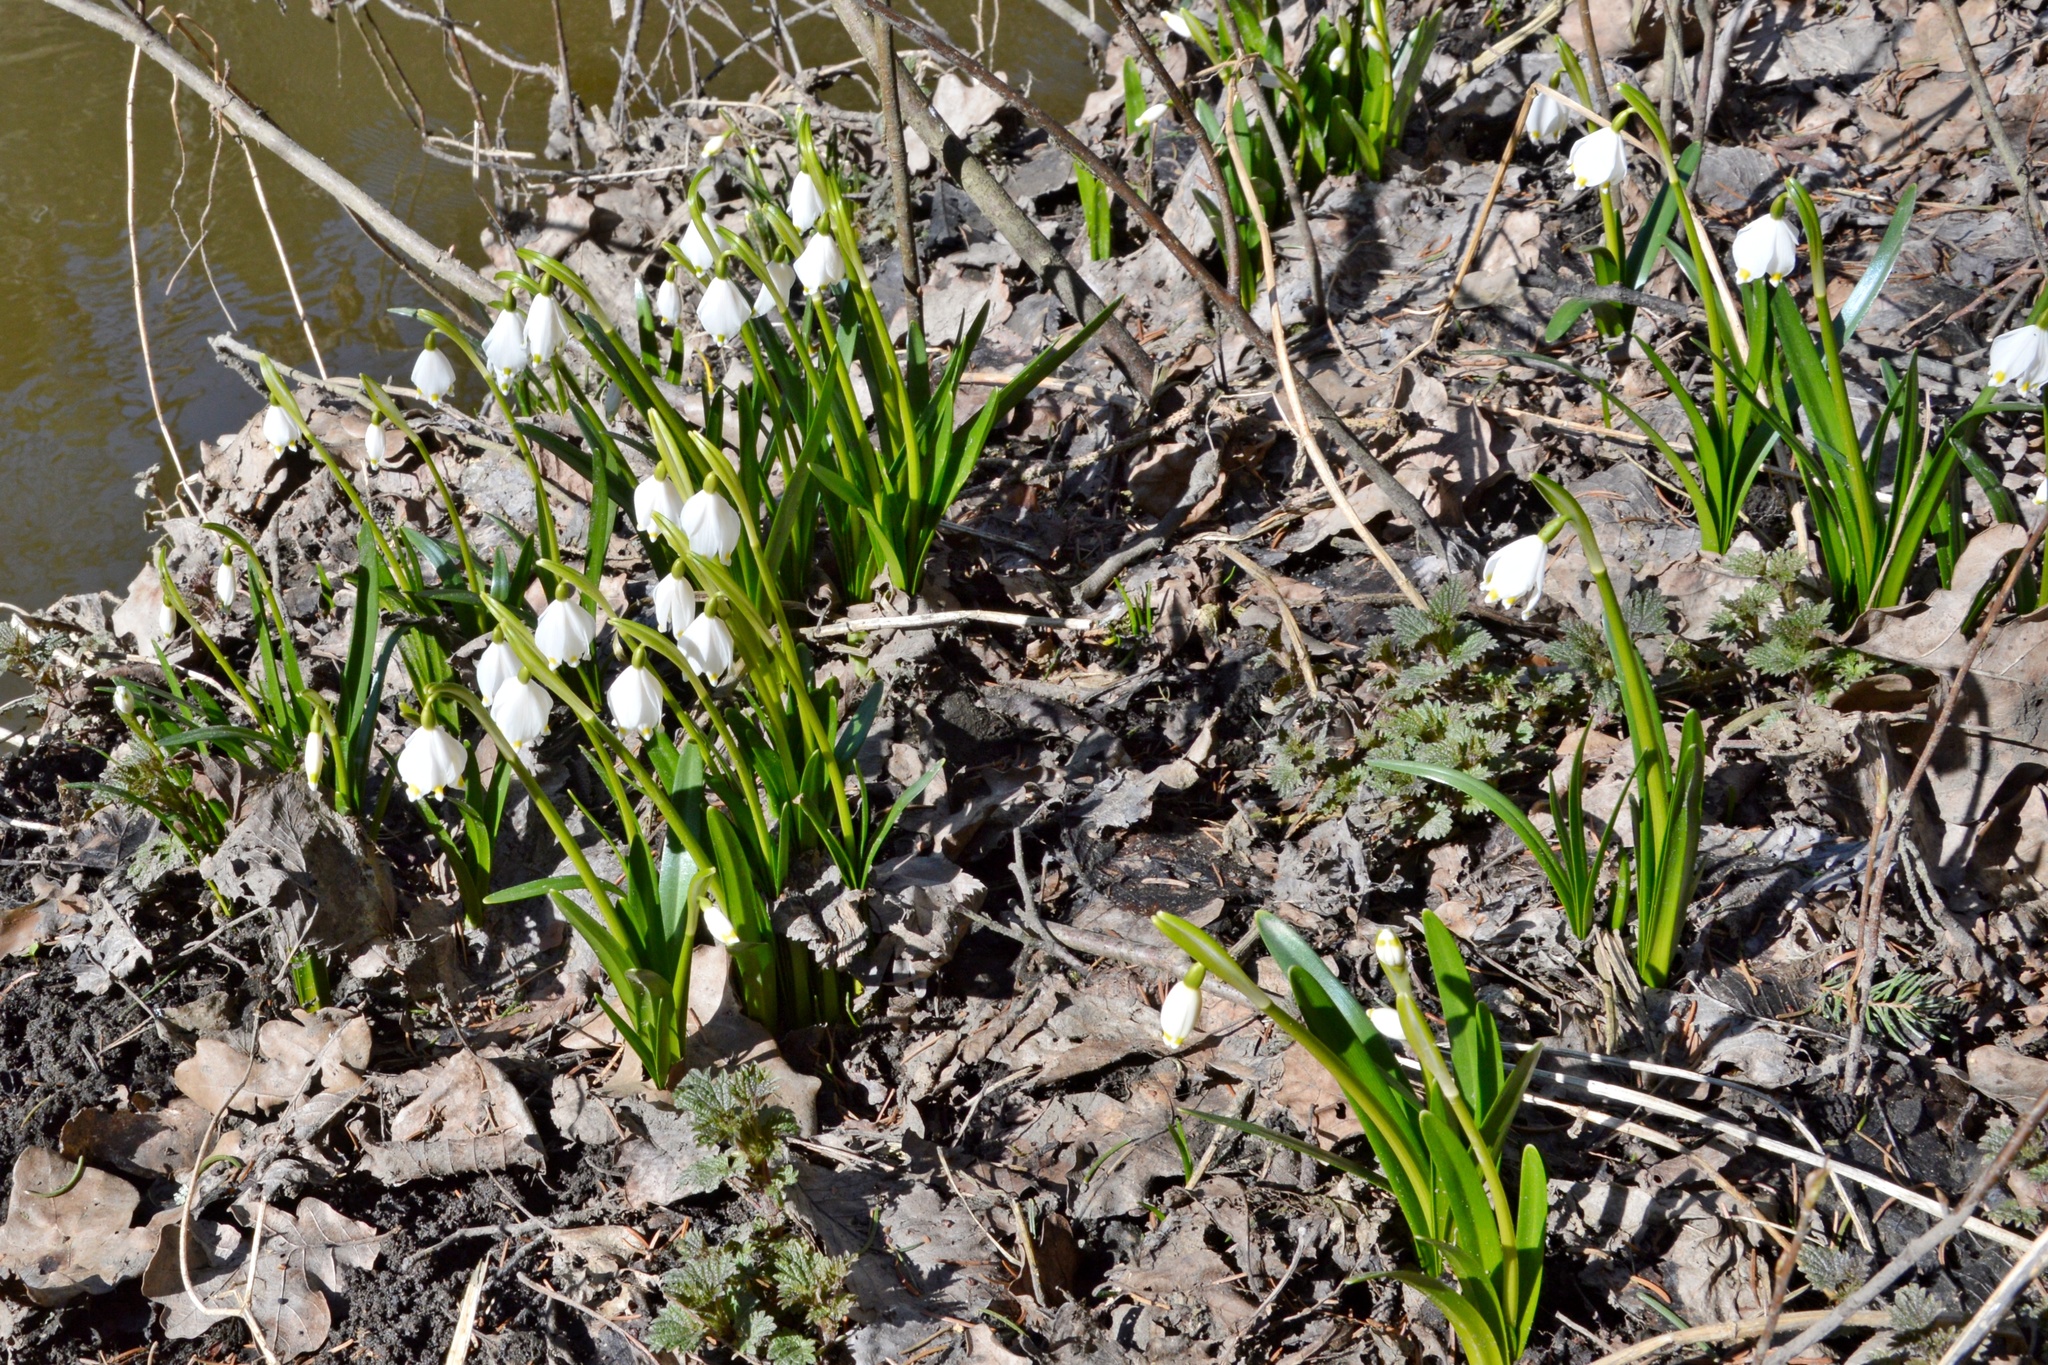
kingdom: Plantae
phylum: Tracheophyta
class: Liliopsida
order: Asparagales
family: Amaryllidaceae
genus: Leucojum
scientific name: Leucojum vernum
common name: Spring snowflake
